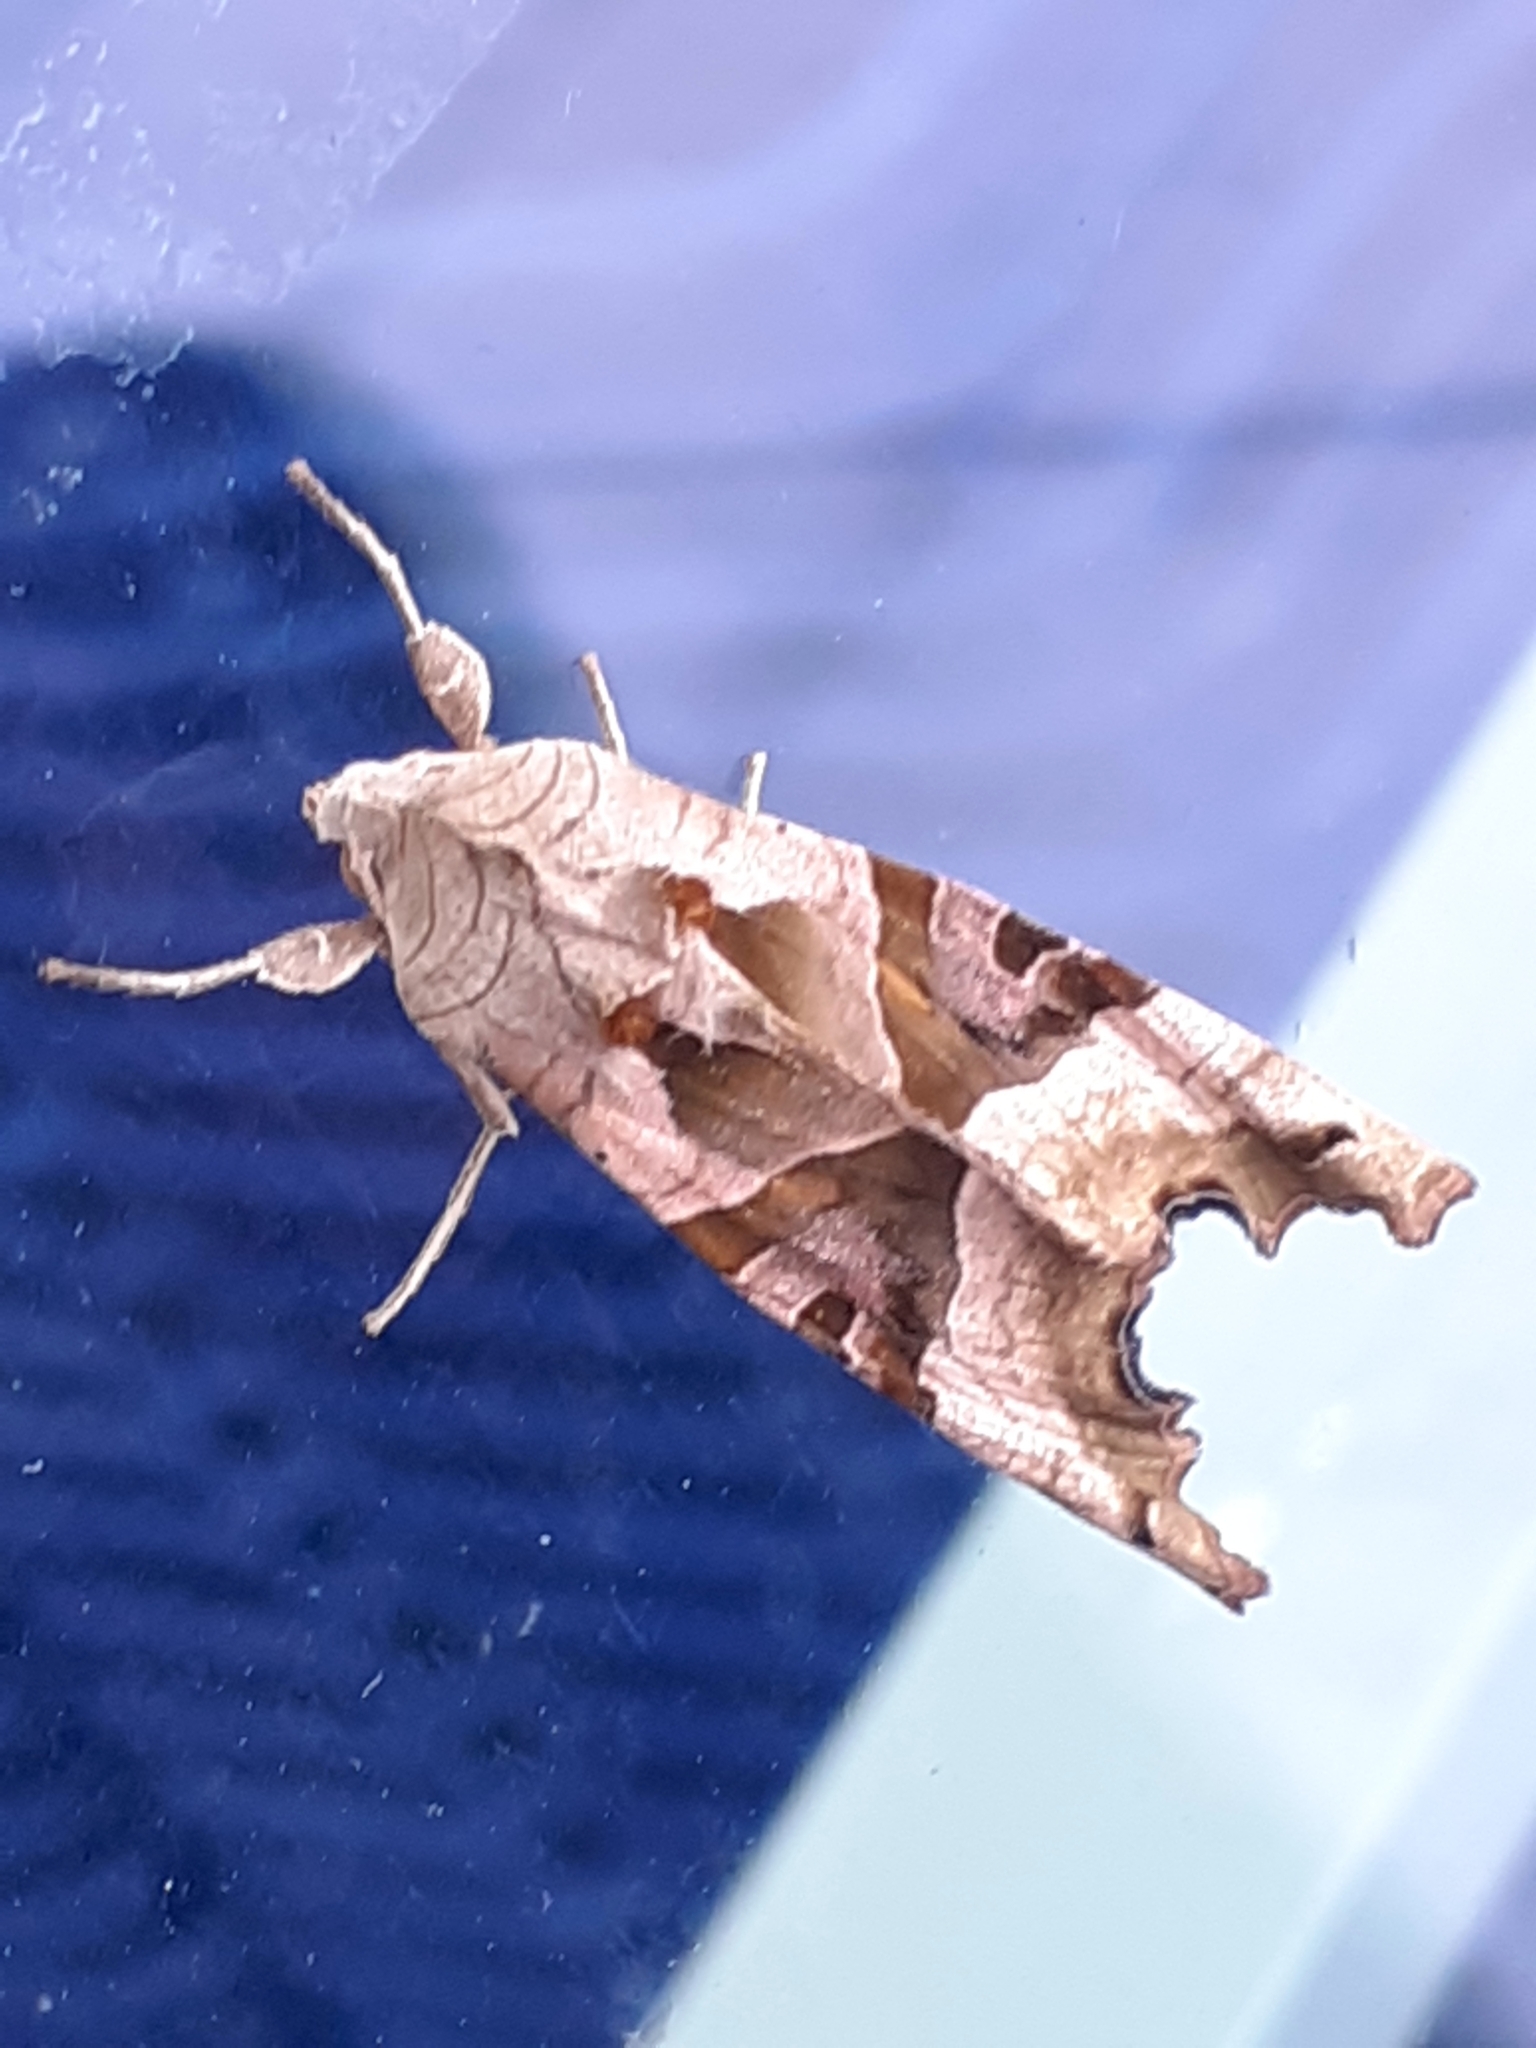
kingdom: Animalia
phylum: Arthropoda
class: Insecta
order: Lepidoptera
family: Noctuidae
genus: Phlogophora
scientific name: Phlogophora meticulosa
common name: Angle shades
